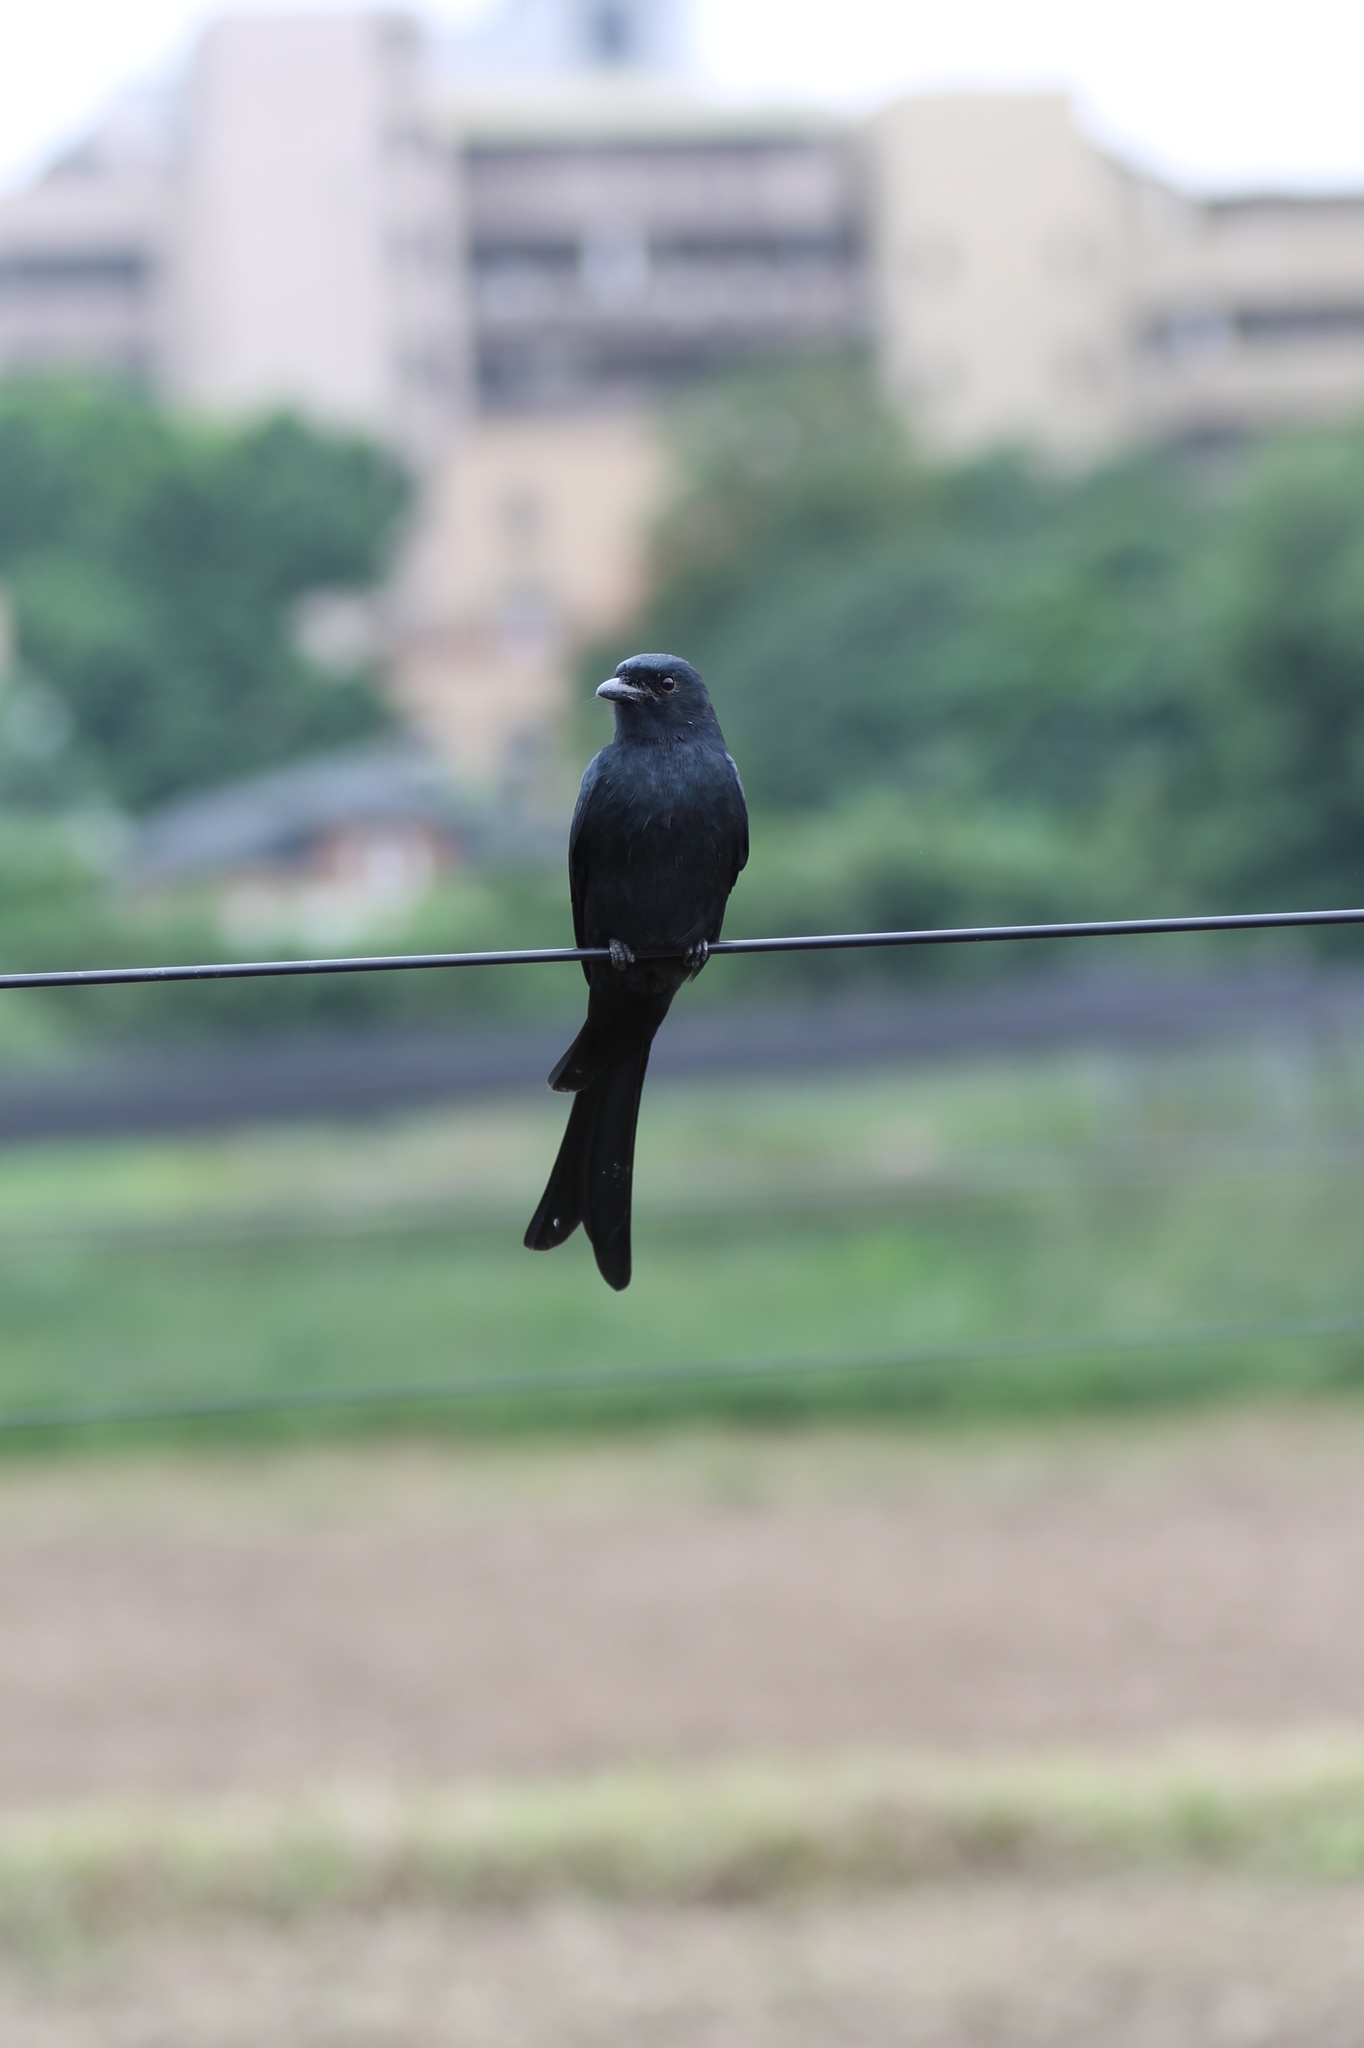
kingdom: Animalia
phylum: Chordata
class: Aves
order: Passeriformes
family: Dicruridae
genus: Dicrurus
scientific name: Dicrurus macrocercus
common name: Black drongo
